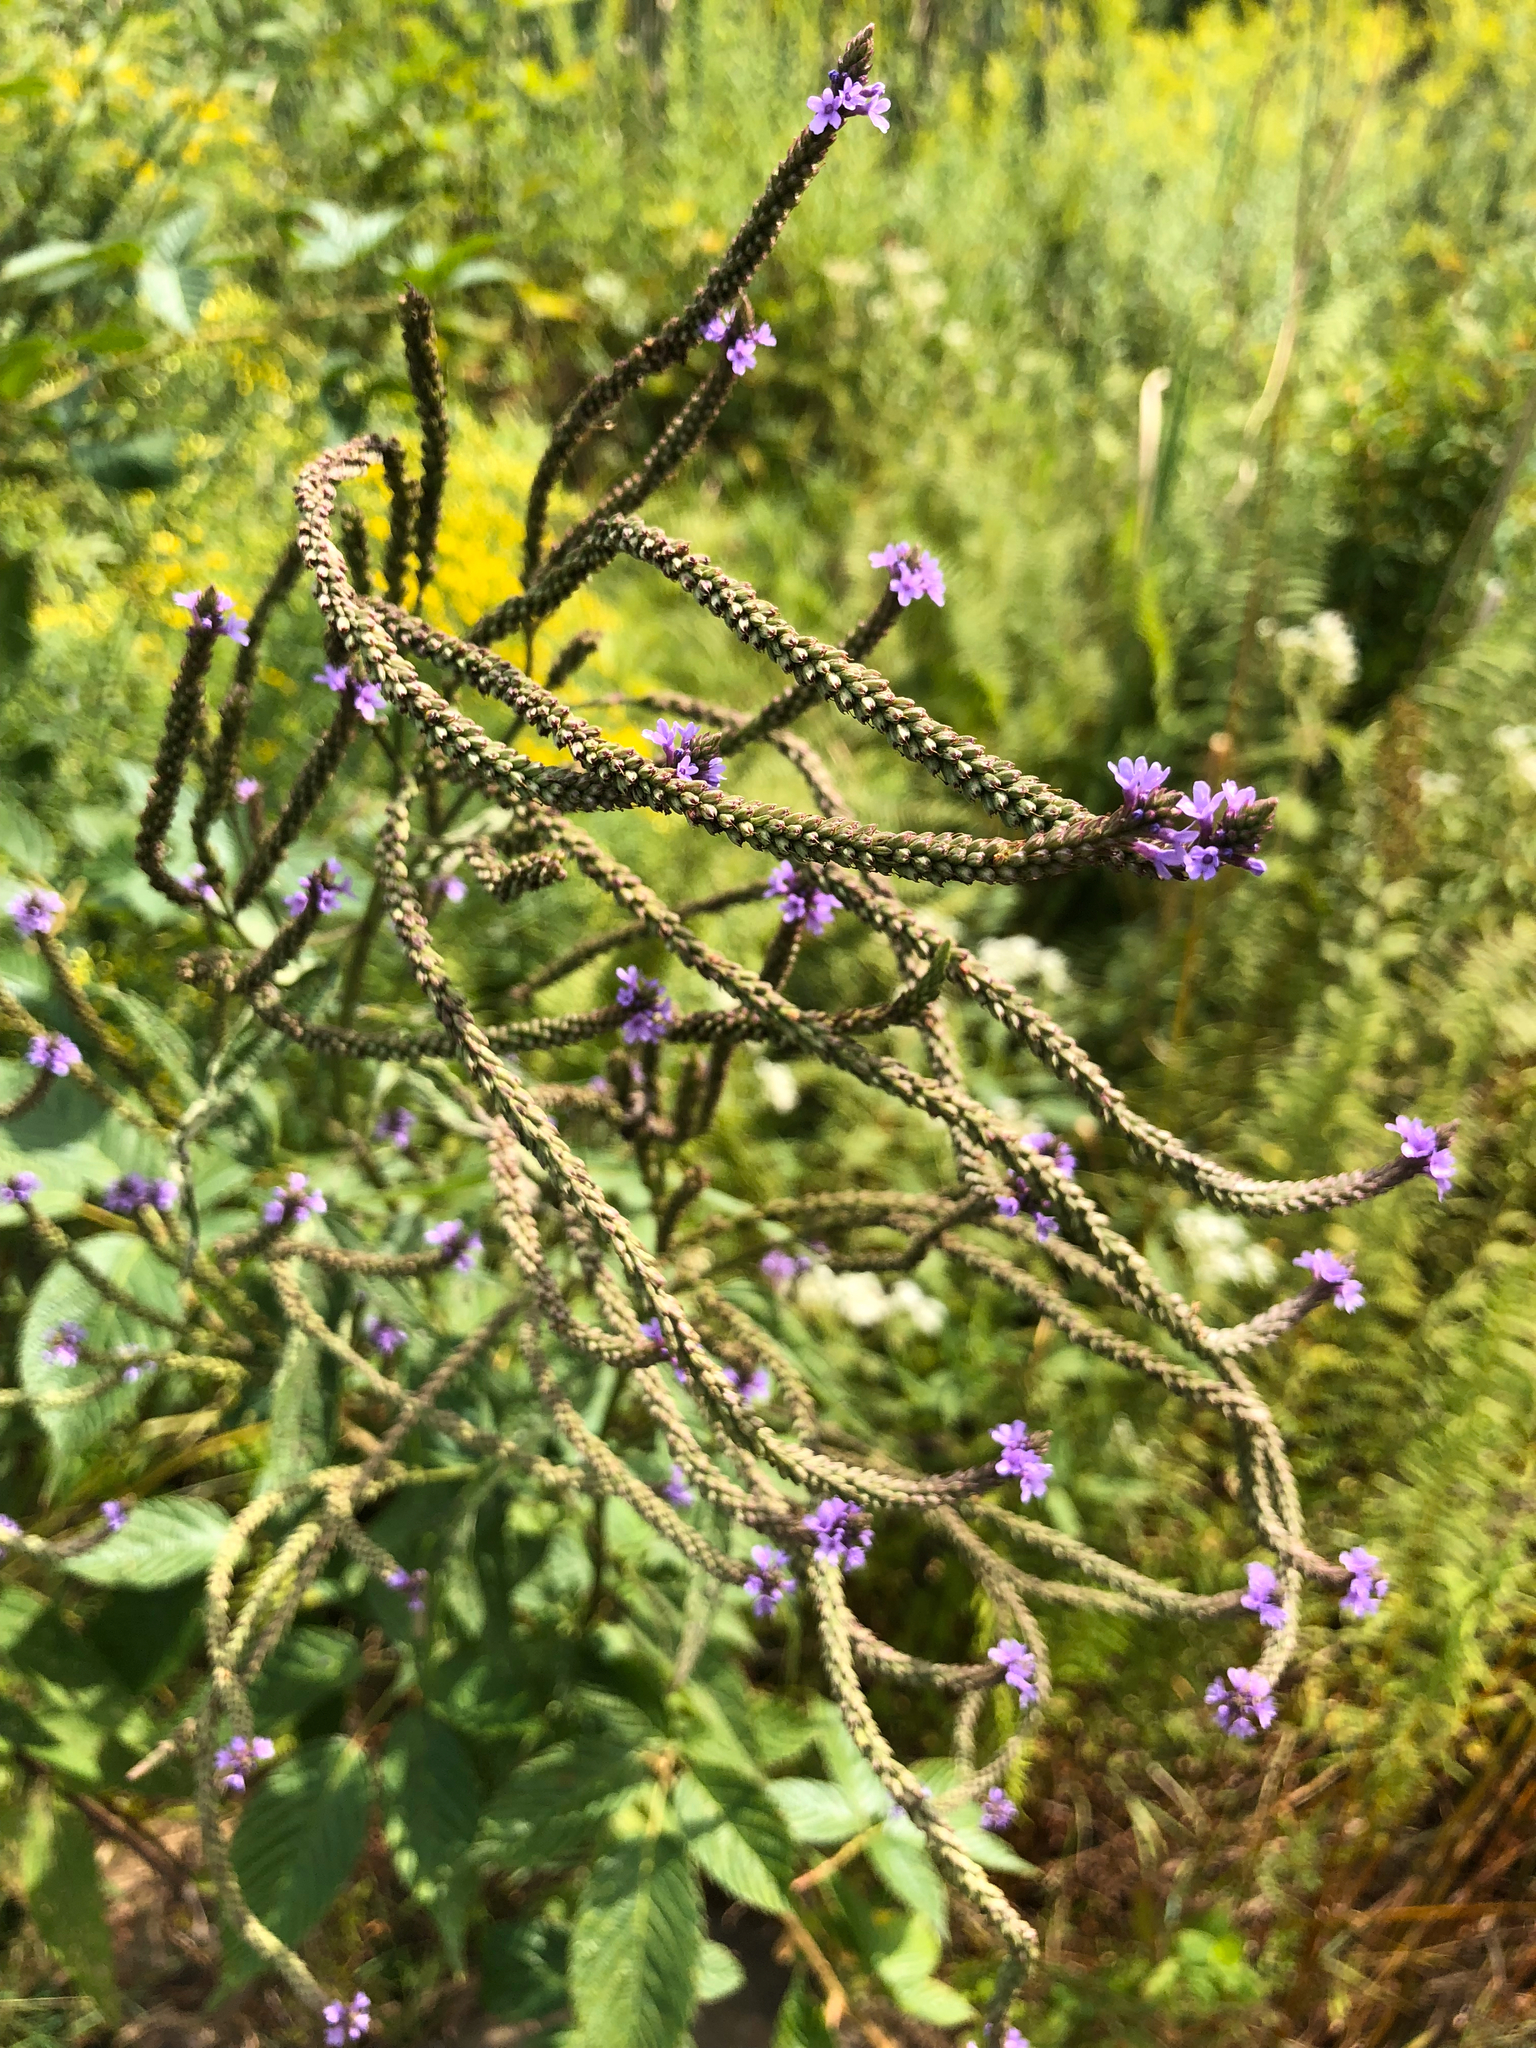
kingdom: Plantae
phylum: Tracheophyta
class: Magnoliopsida
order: Lamiales
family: Verbenaceae
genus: Verbena
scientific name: Verbena hastata
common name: American blue vervain
